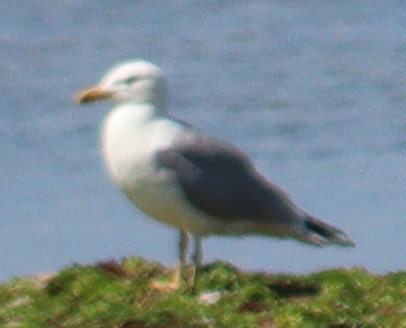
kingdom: Animalia
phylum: Chordata
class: Aves
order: Charadriiformes
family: Laridae
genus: Larus
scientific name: Larus argentatus
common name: Herring gull
